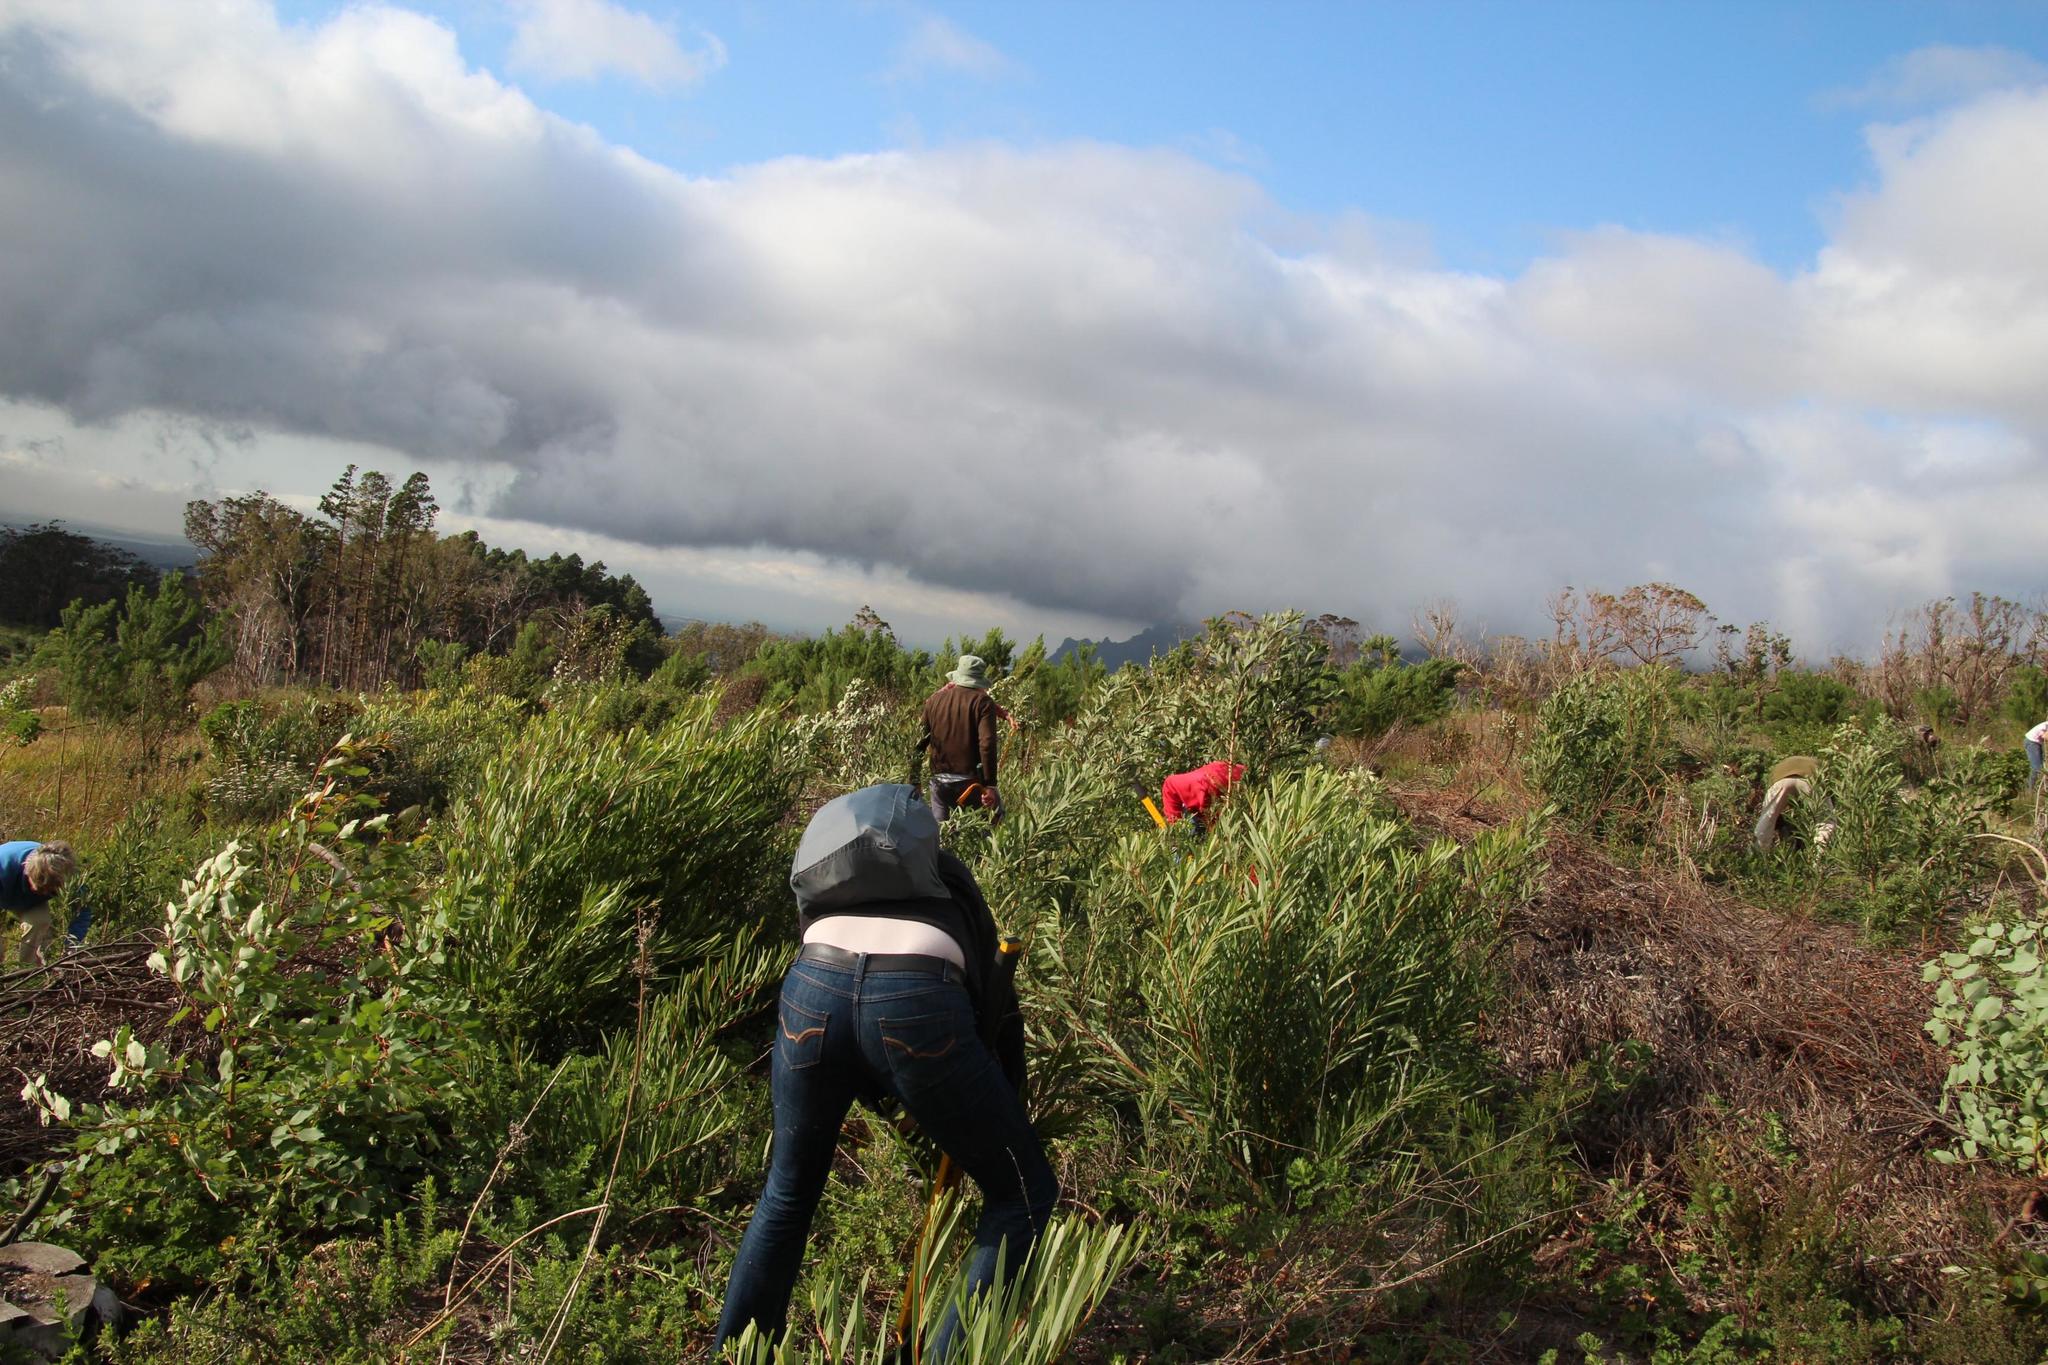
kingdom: Plantae
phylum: Tracheophyta
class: Magnoliopsida
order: Fabales
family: Fabaceae
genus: Acacia
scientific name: Acacia longifolia
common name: Sydney golden wattle
